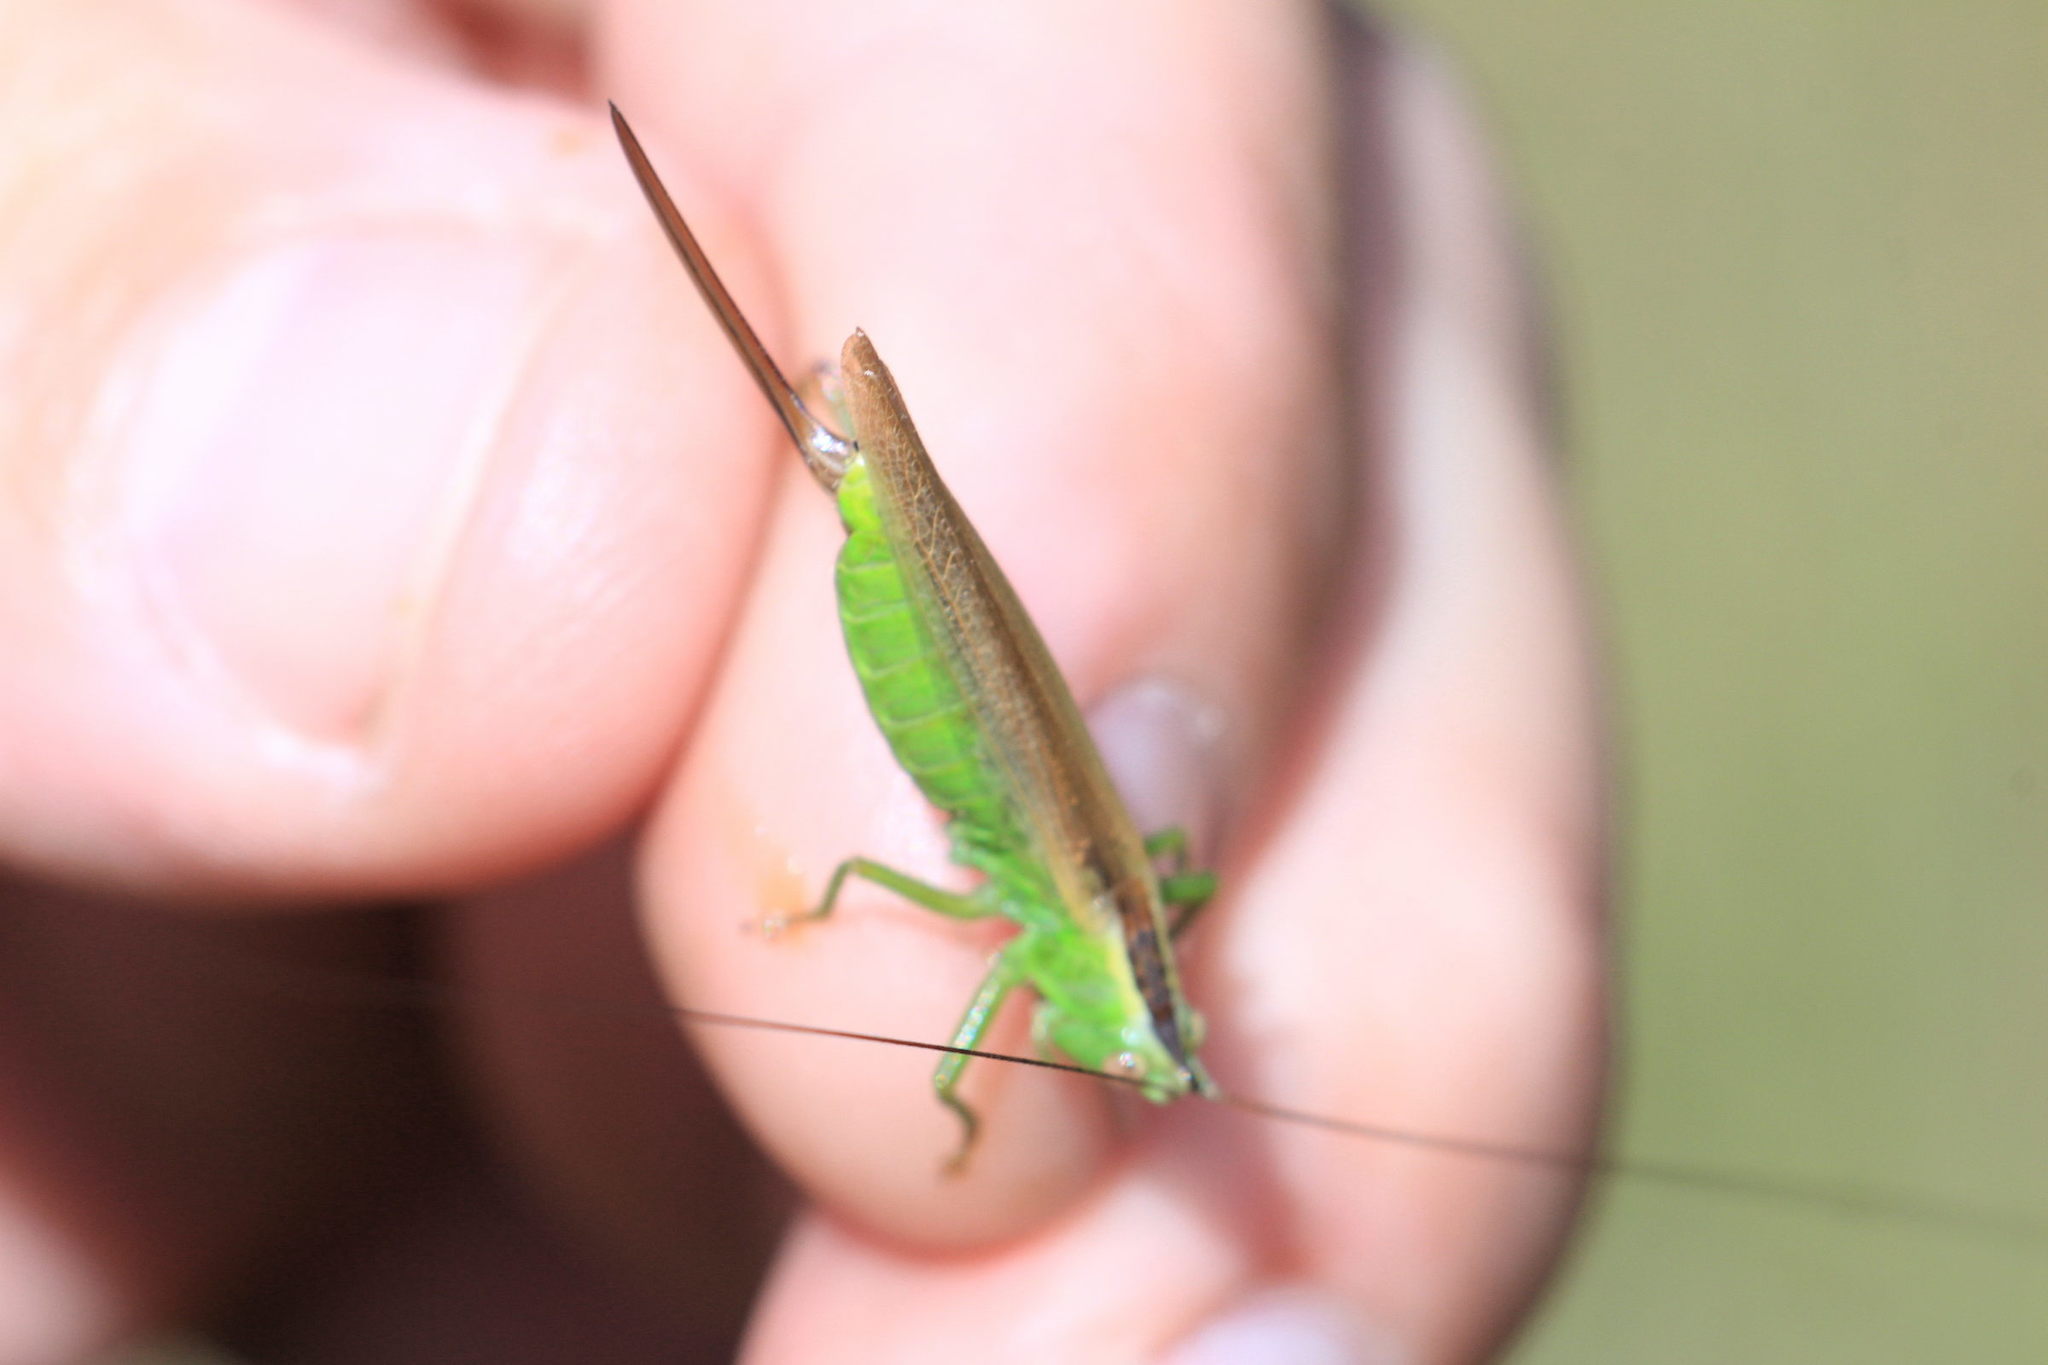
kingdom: Animalia
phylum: Arthropoda
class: Insecta
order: Orthoptera
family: Tettigoniidae
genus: Conocephalus
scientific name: Conocephalus fuscus
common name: Long-winged conehead
